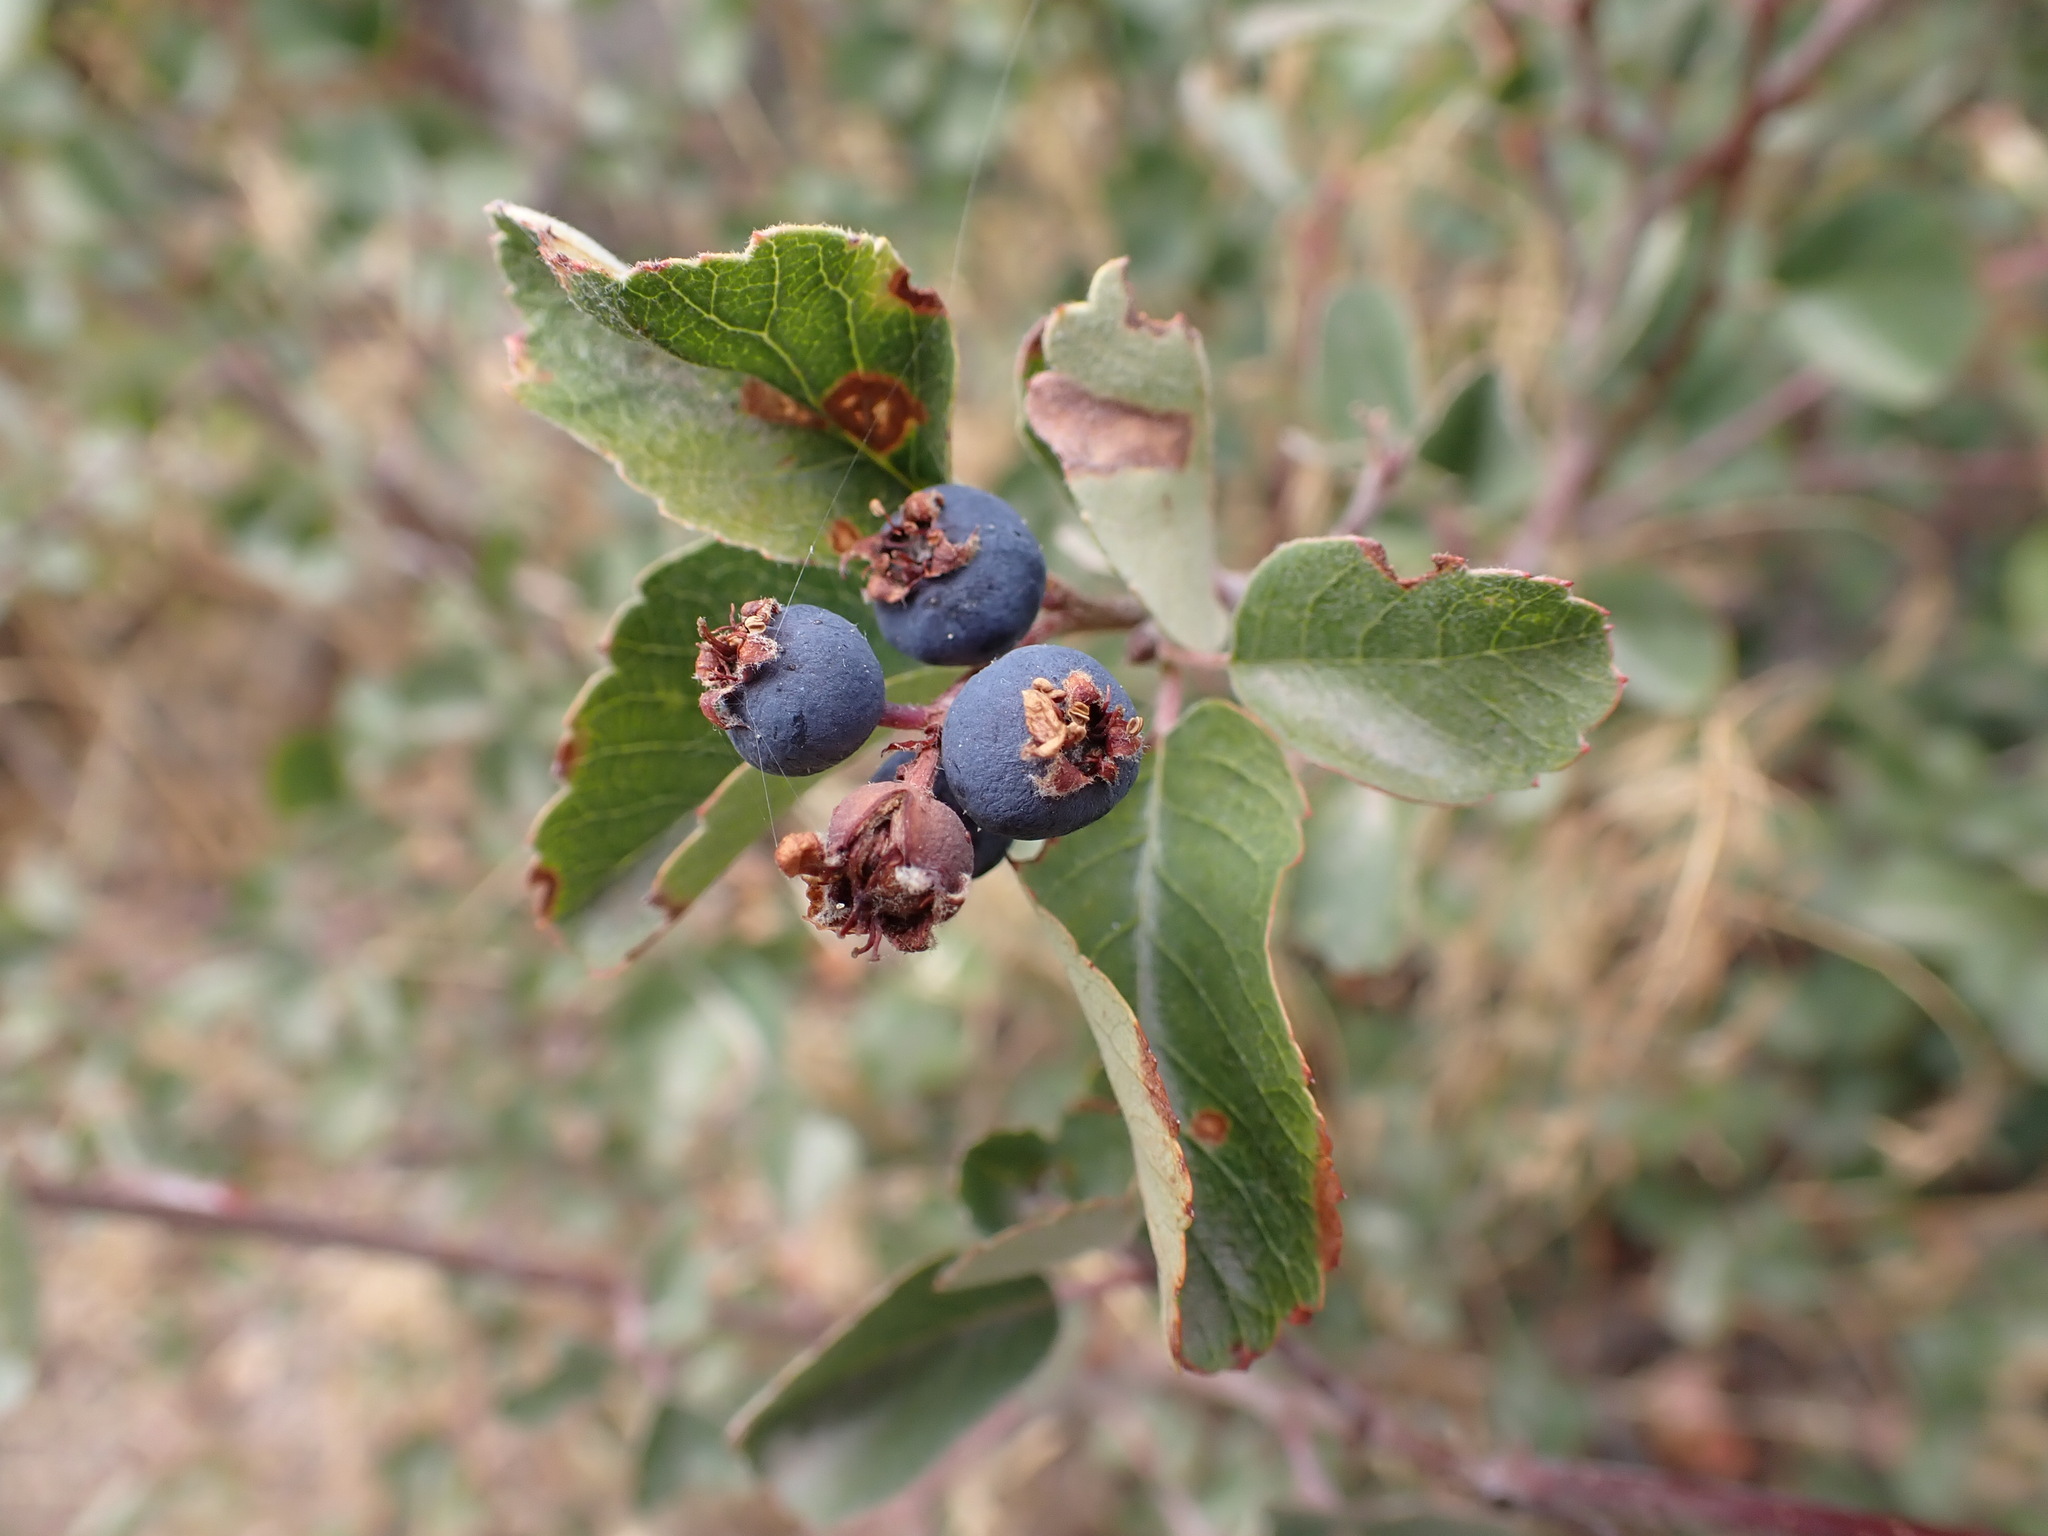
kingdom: Plantae
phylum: Tracheophyta
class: Magnoliopsida
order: Rosales
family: Rosaceae
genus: Amelanchier
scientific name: Amelanchier utahensis
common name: Utah serviceberry
